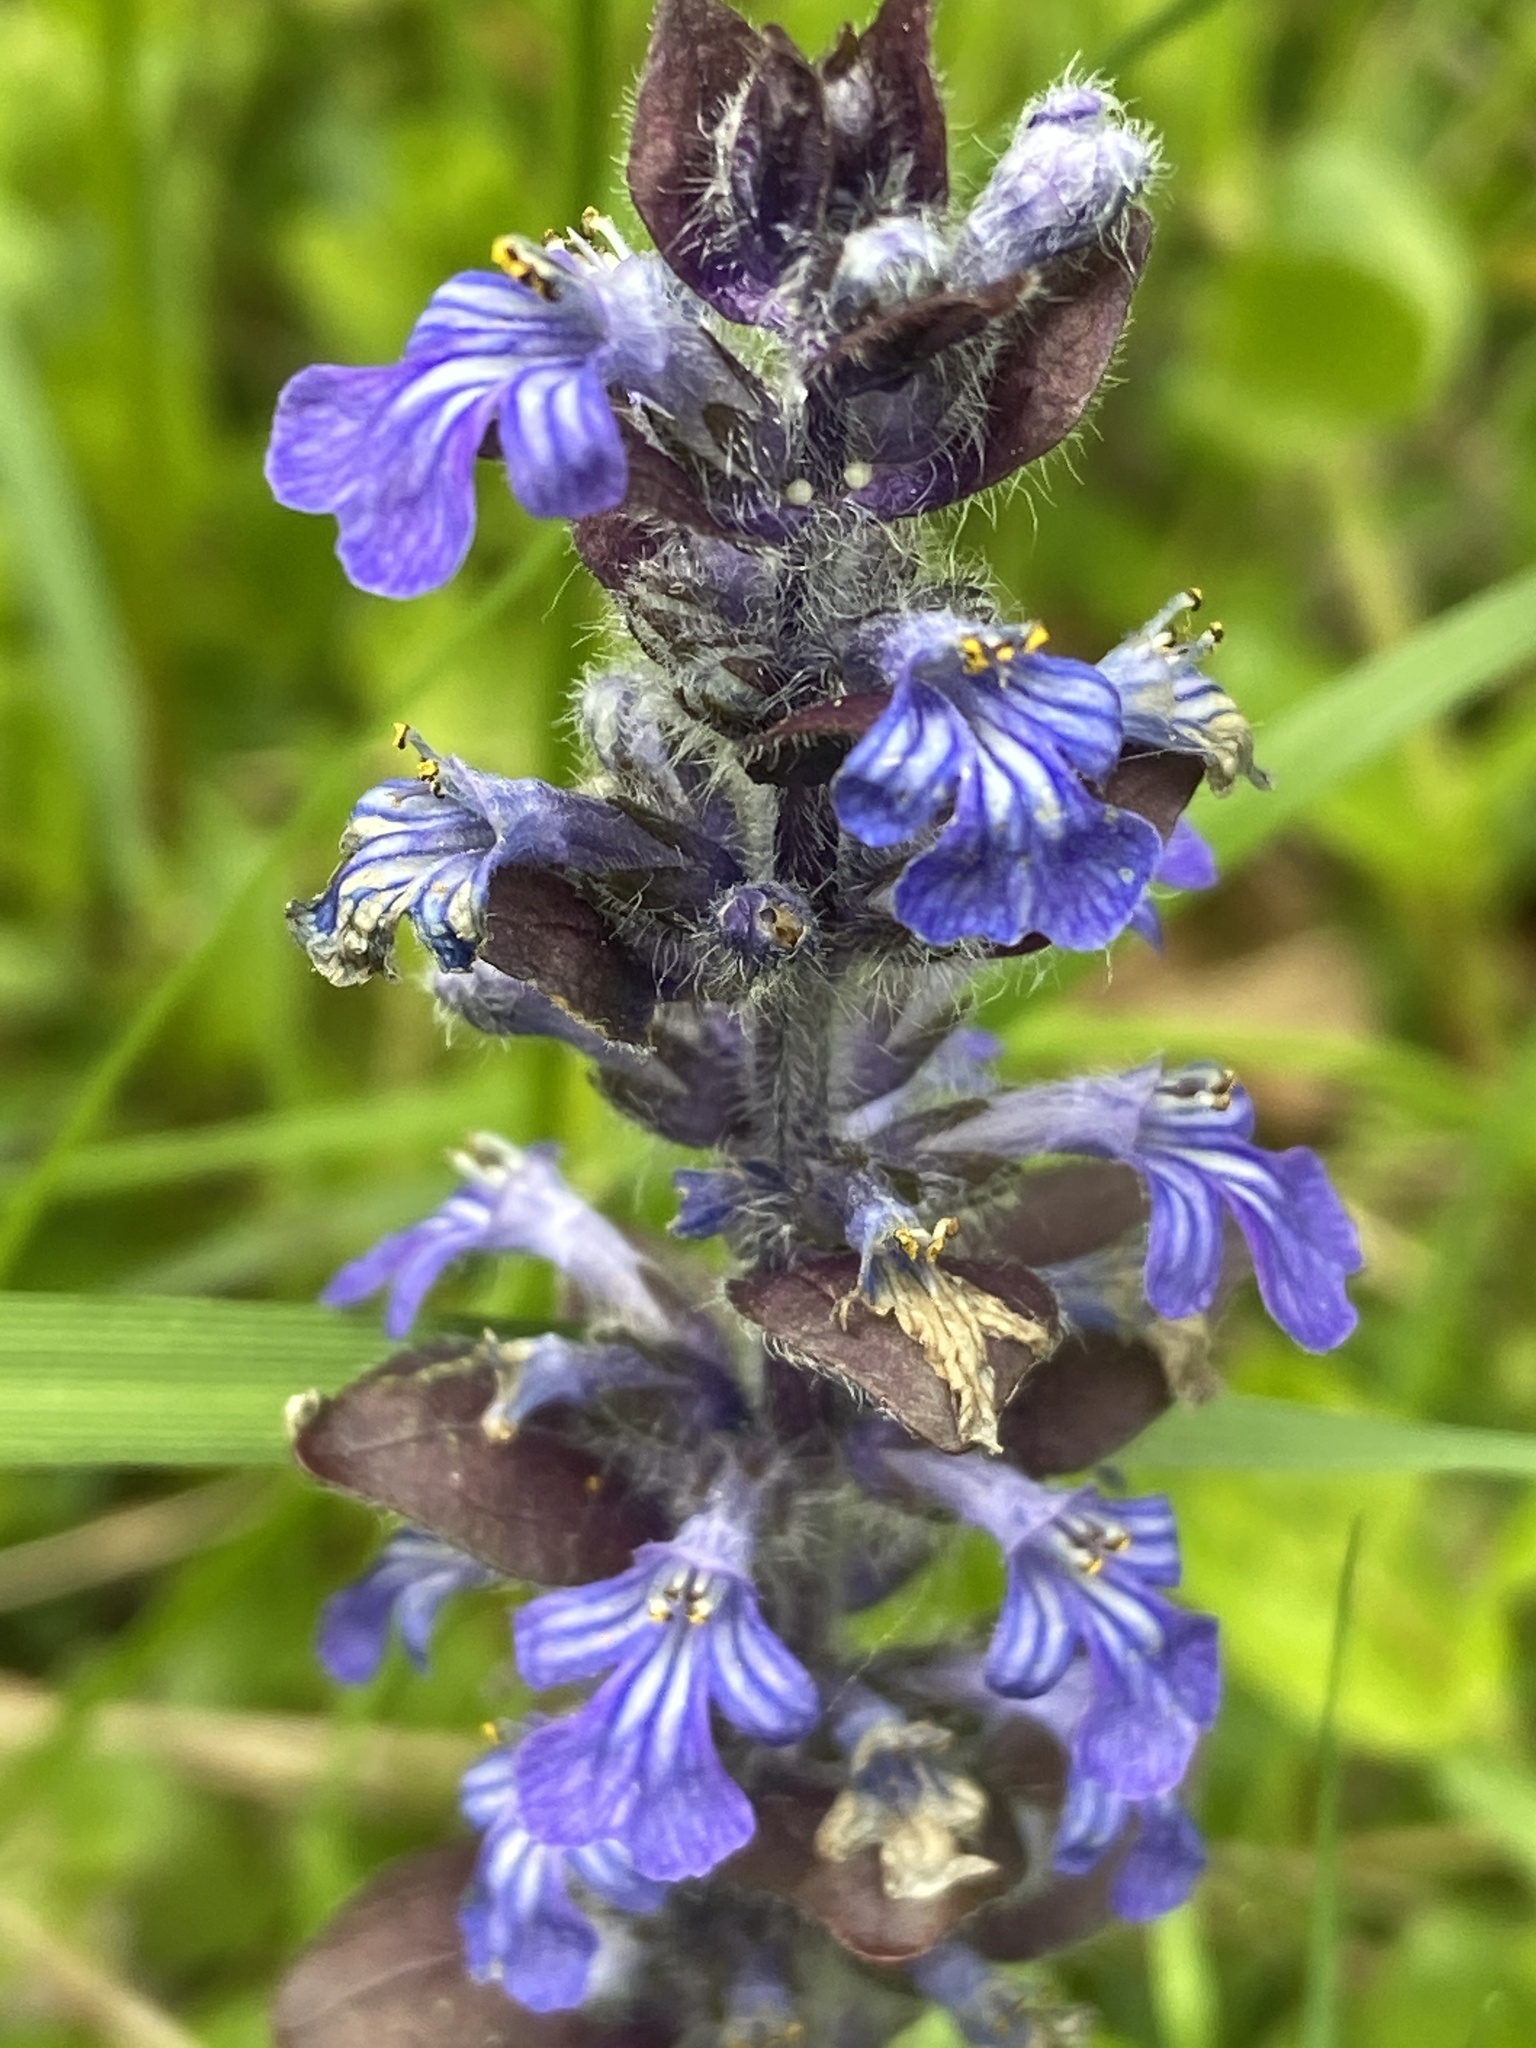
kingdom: Plantae
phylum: Tracheophyta
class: Magnoliopsida
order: Lamiales
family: Lamiaceae
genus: Ajuga
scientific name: Ajuga reptans
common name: Bugle
